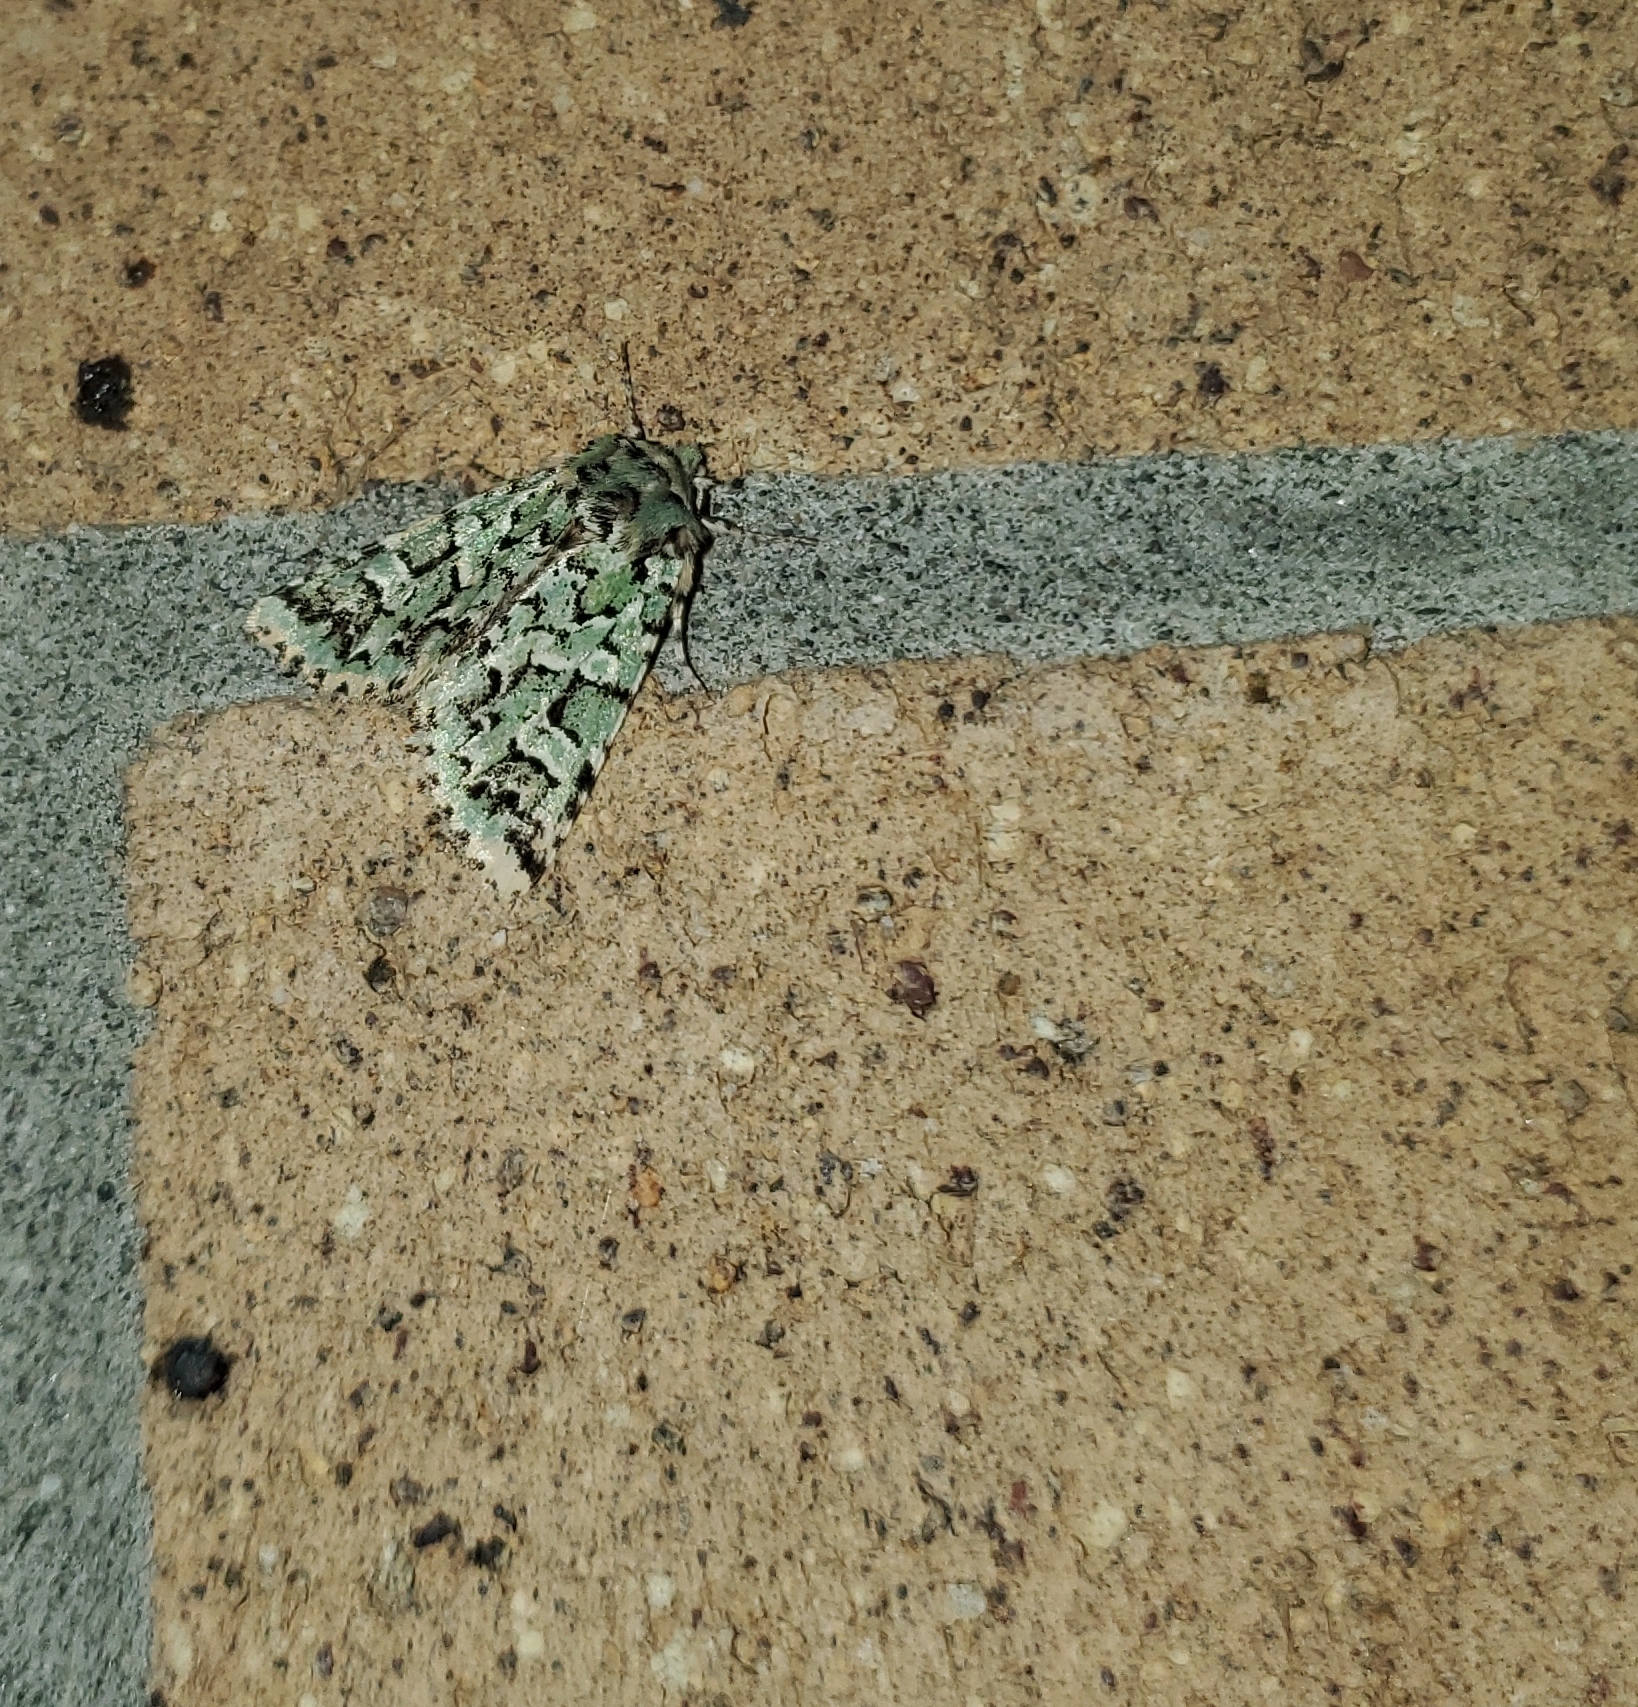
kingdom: Animalia
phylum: Arthropoda
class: Insecta
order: Lepidoptera
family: Noctuidae
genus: Feralia
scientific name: Feralia comstocki
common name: Comstock's sallow
